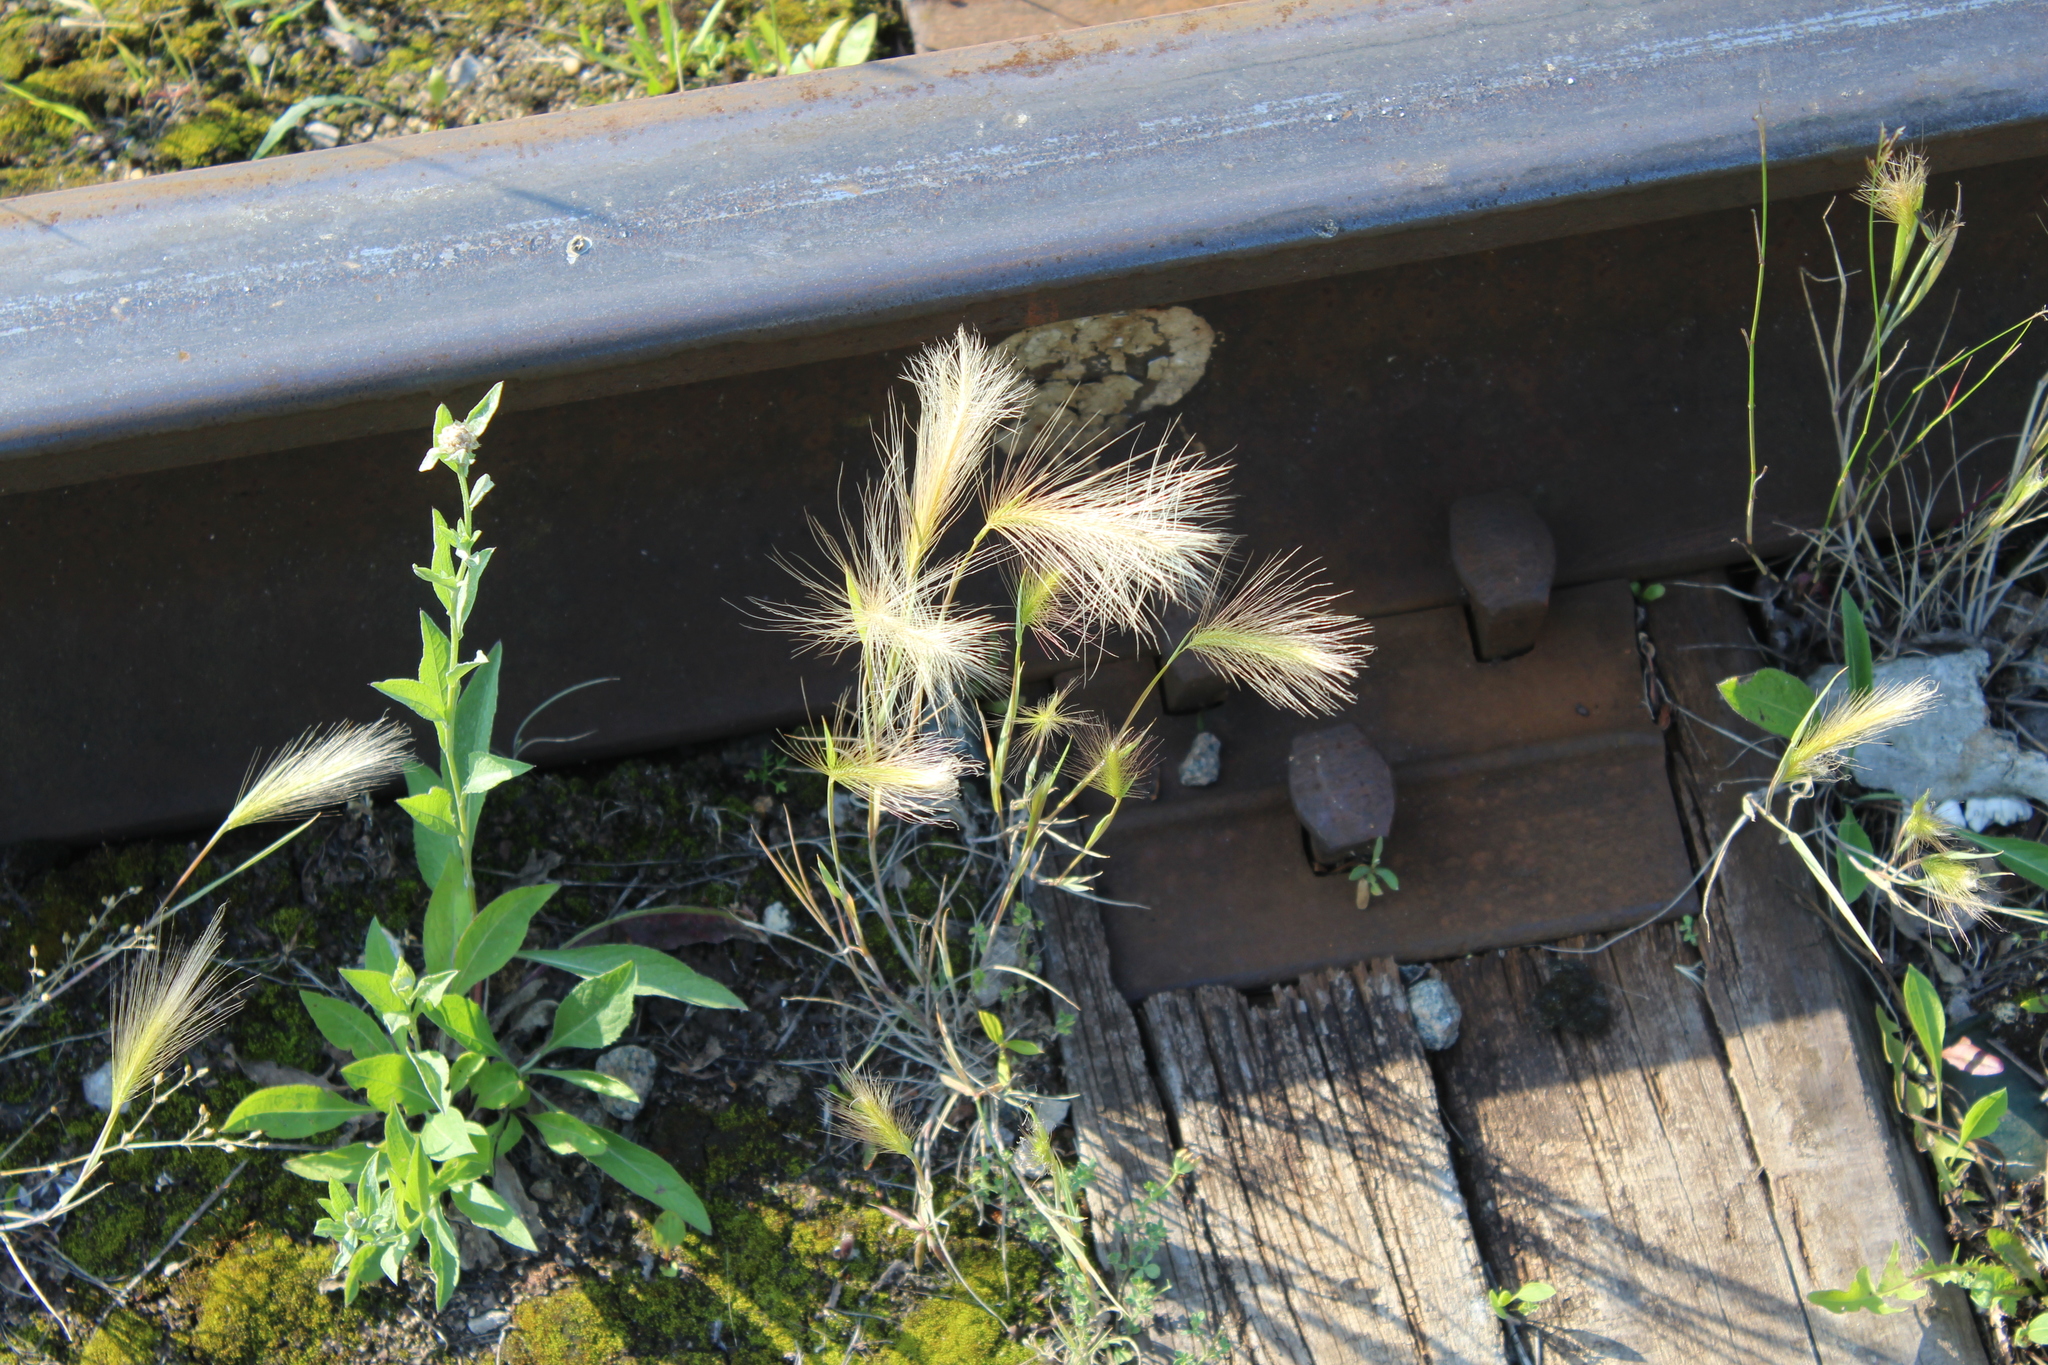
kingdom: Plantae
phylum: Tracheophyta
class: Liliopsida
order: Poales
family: Poaceae
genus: Hordeum
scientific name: Hordeum jubatum
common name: Foxtail barley
